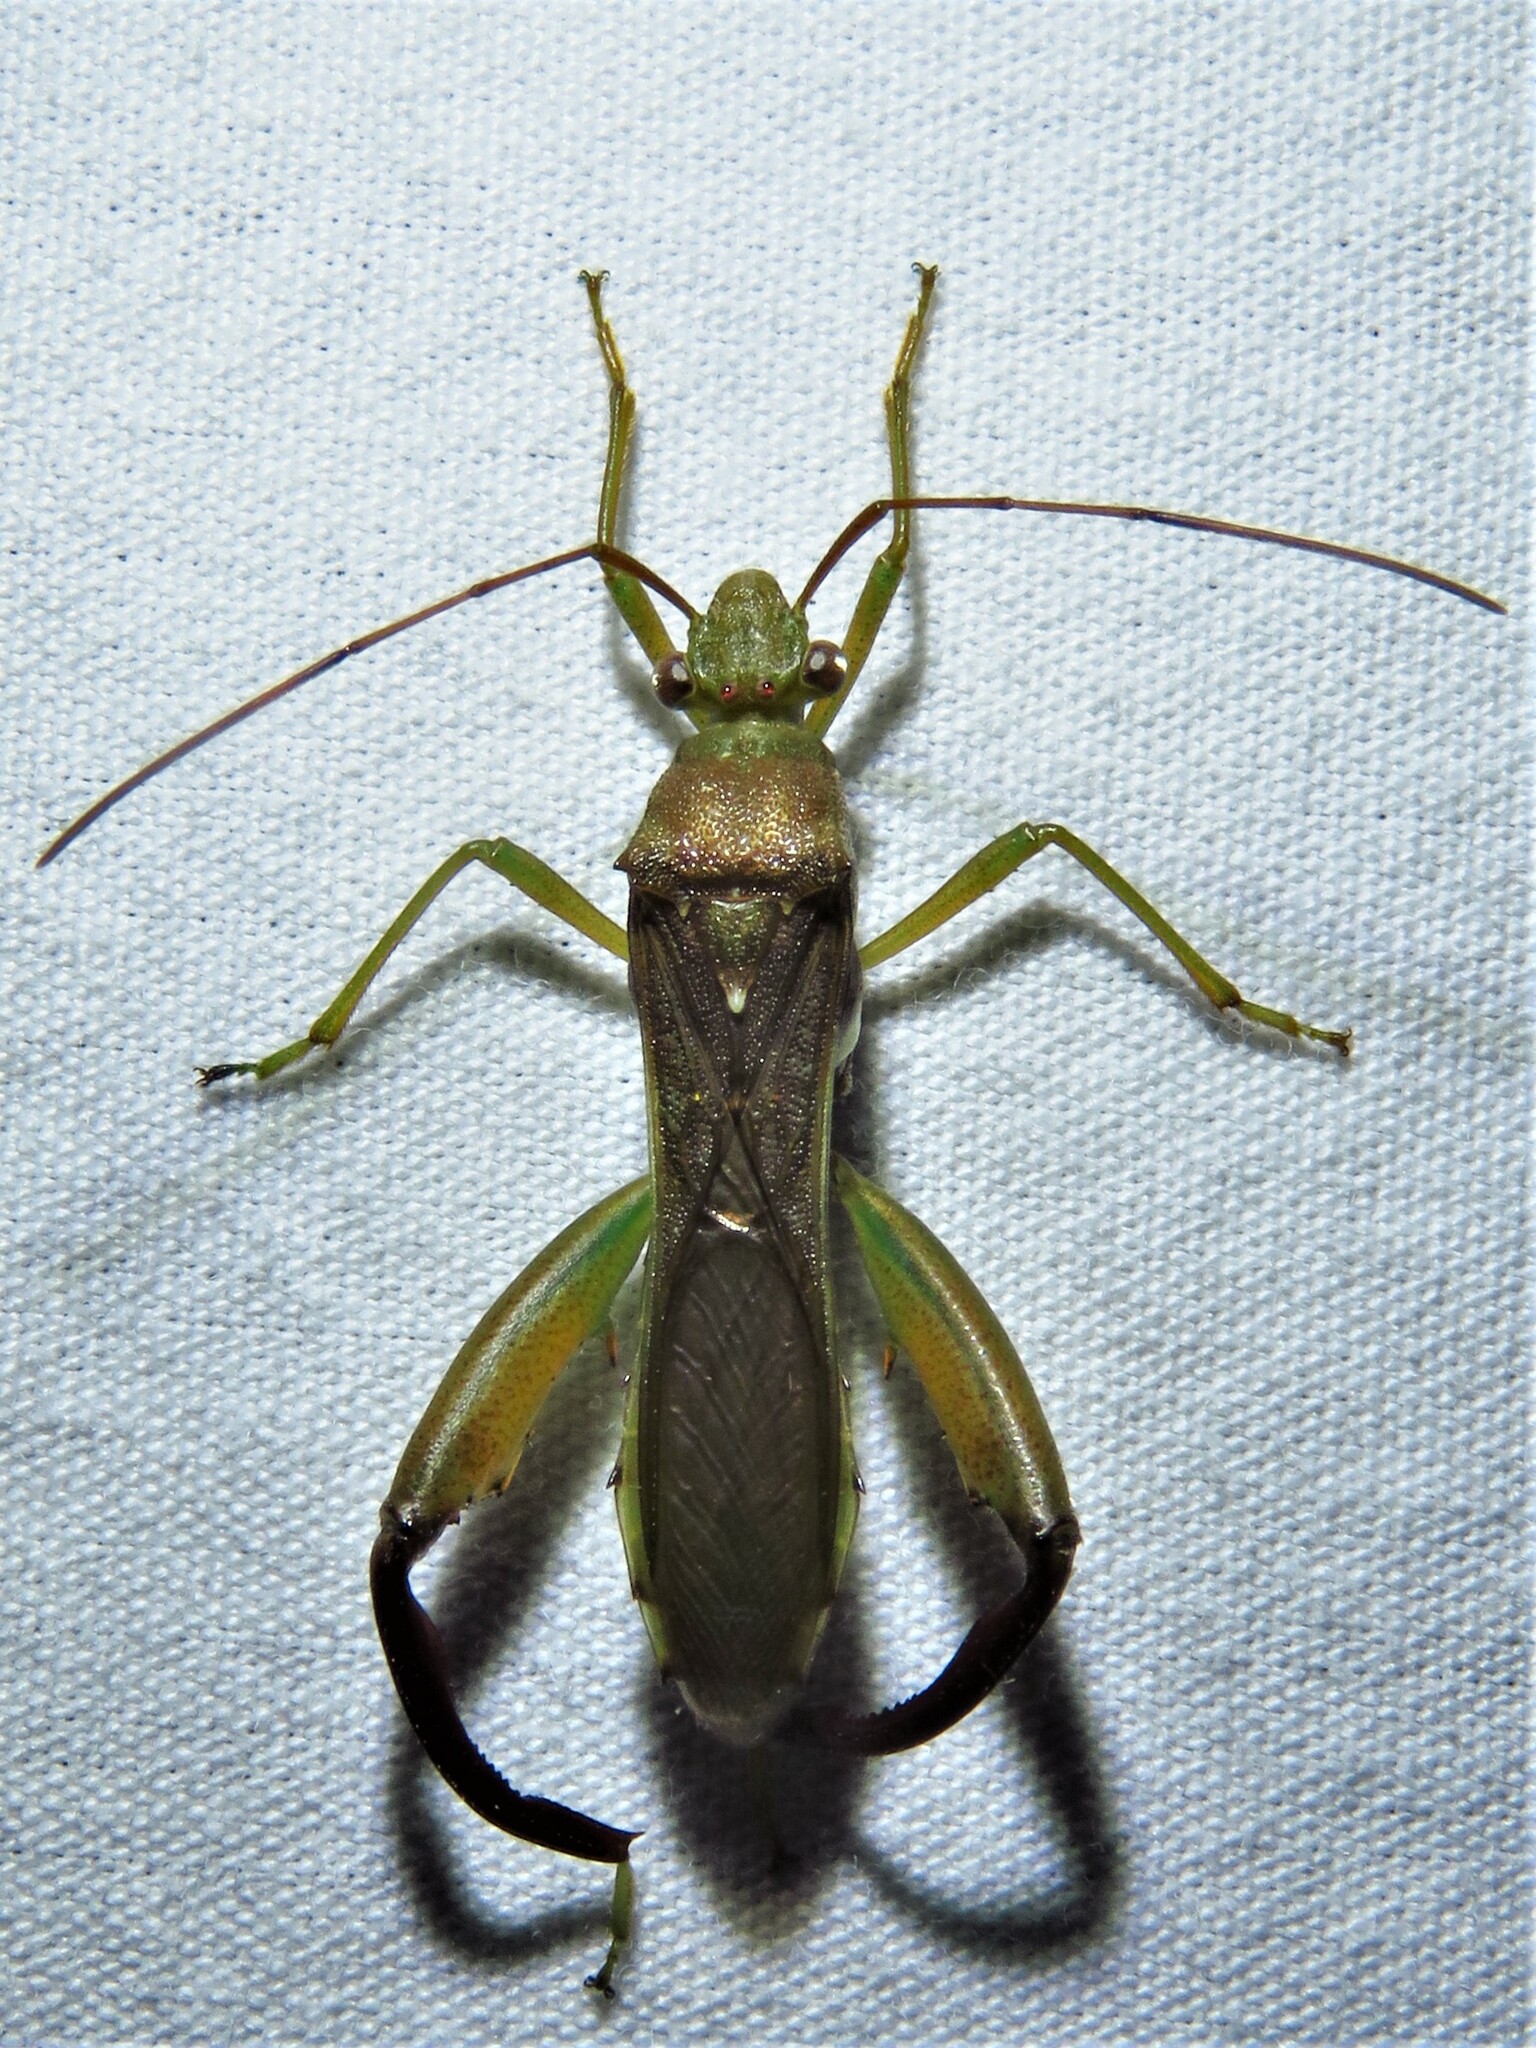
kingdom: Animalia
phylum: Arthropoda
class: Insecta
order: Hemiptera
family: Alydidae
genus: Hyalymenus
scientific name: Hyalymenus tarsatus
